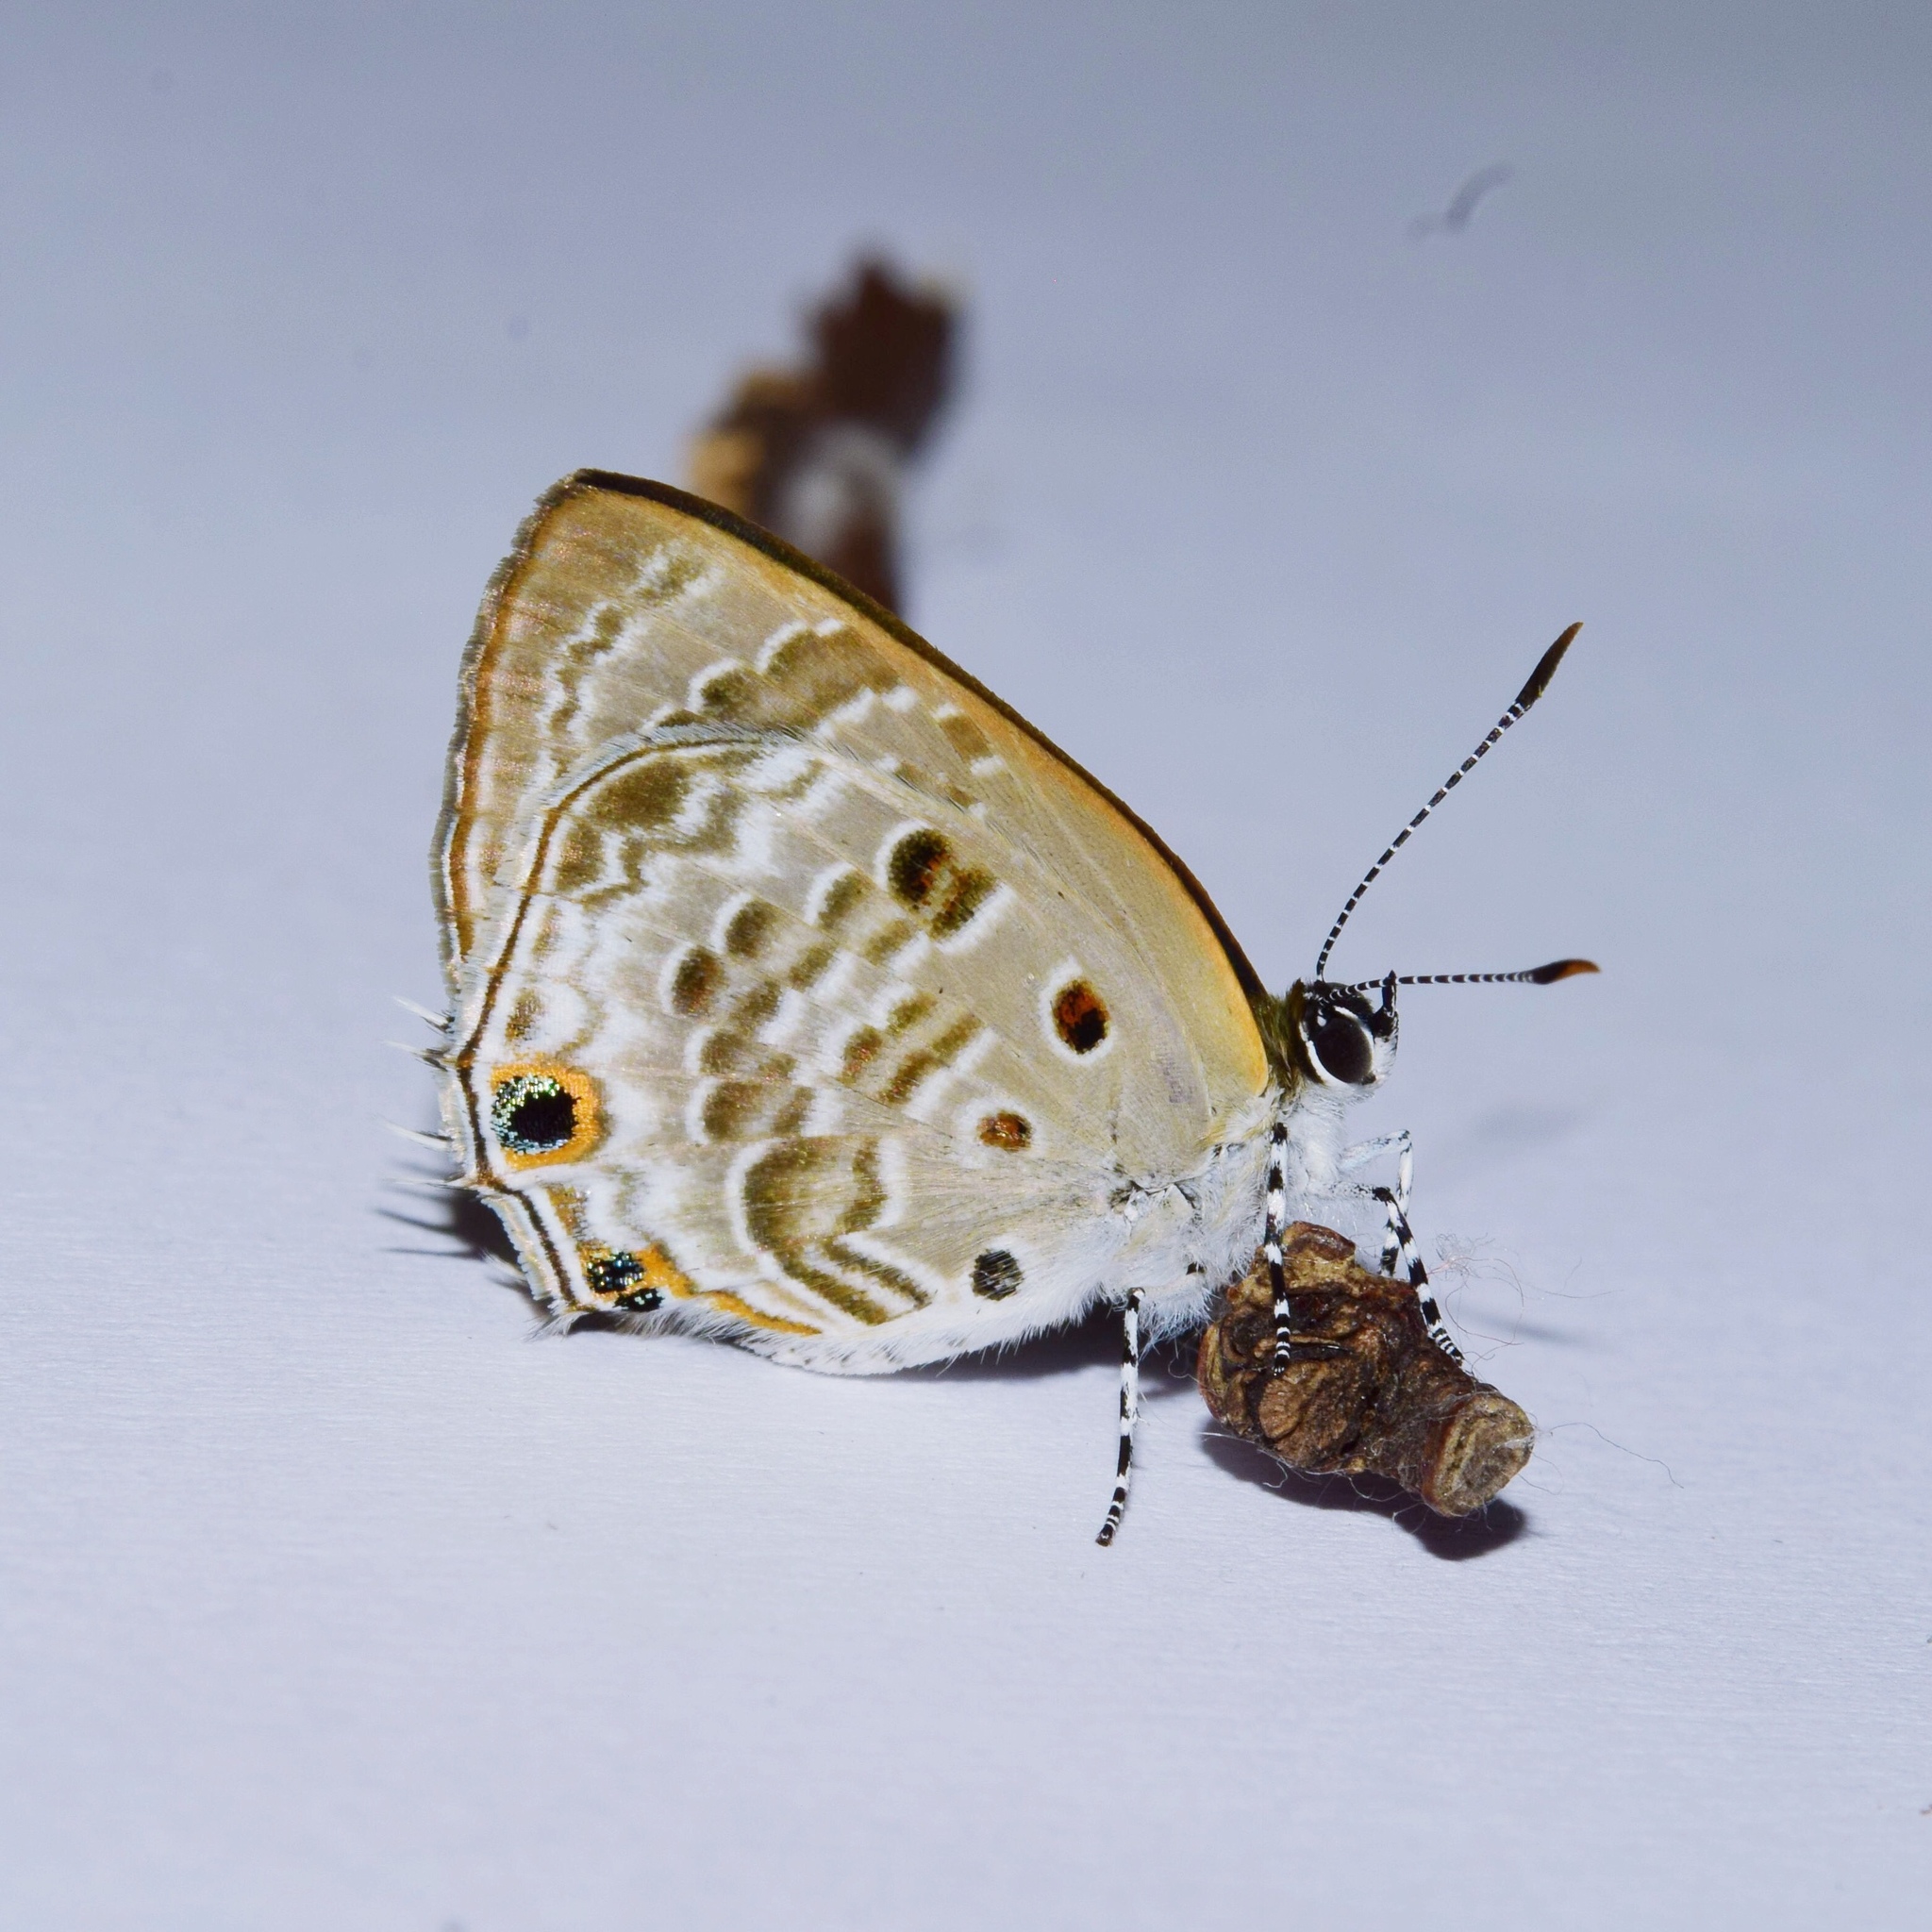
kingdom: Animalia
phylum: Arthropoda
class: Insecta
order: Lepidoptera
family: Lycaenidae
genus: Anthene
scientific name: Anthene lemnos
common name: Large ciliate blue
